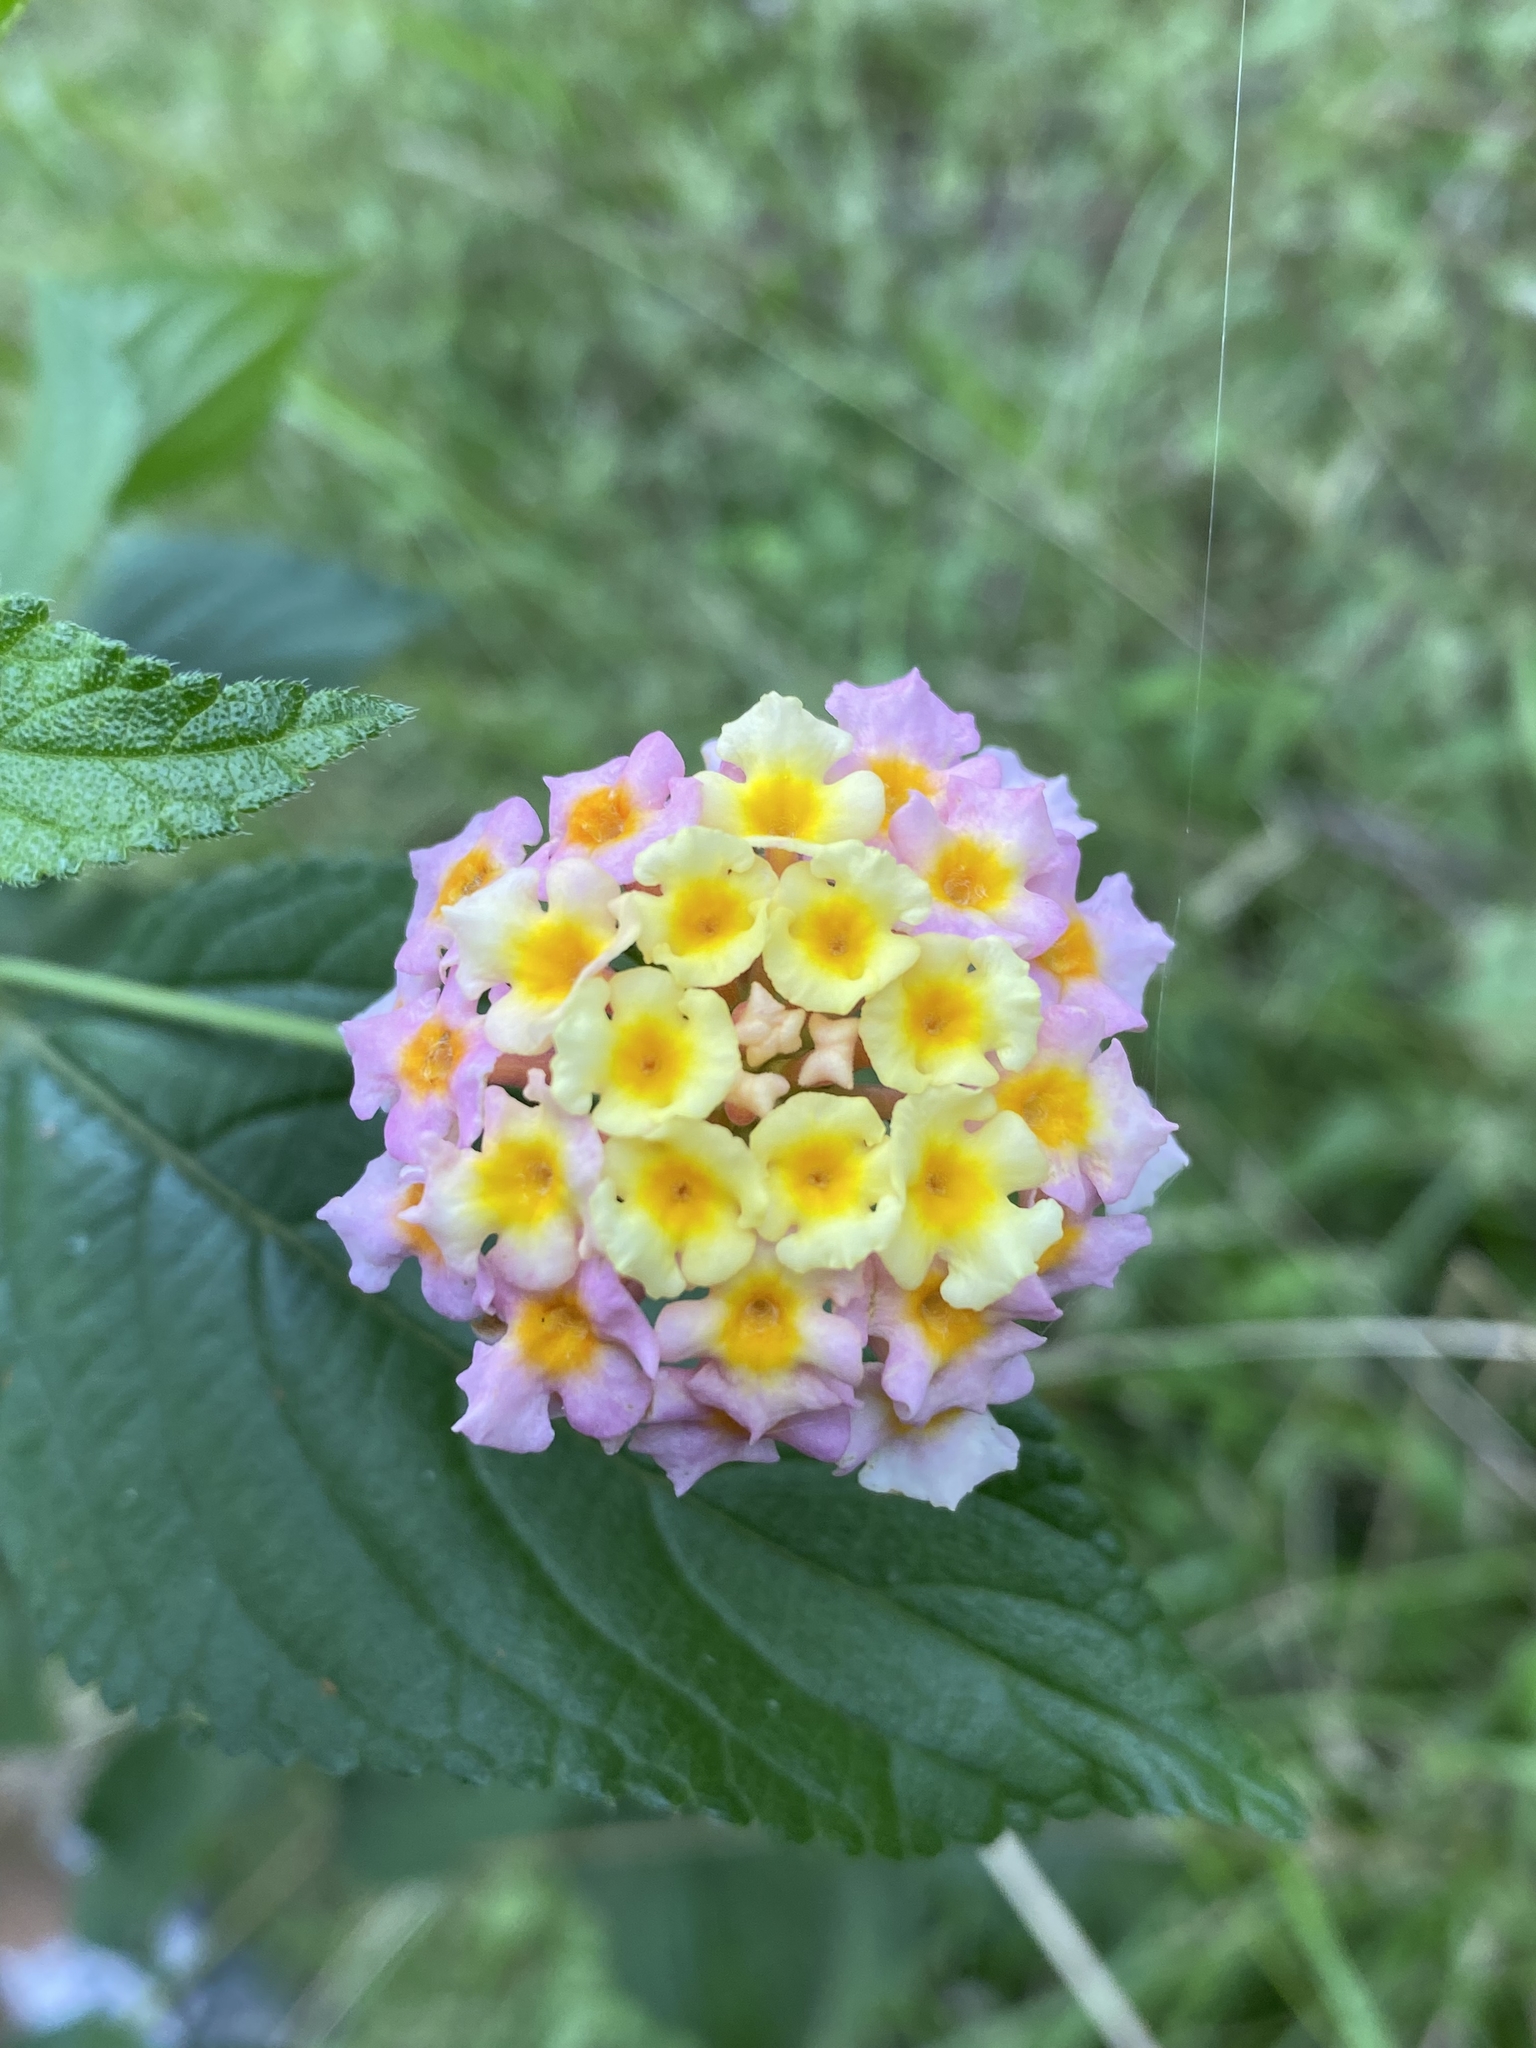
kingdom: Plantae
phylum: Tracheophyta
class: Magnoliopsida
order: Lamiales
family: Verbenaceae
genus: Lantana
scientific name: Lantana camara
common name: Lantana
